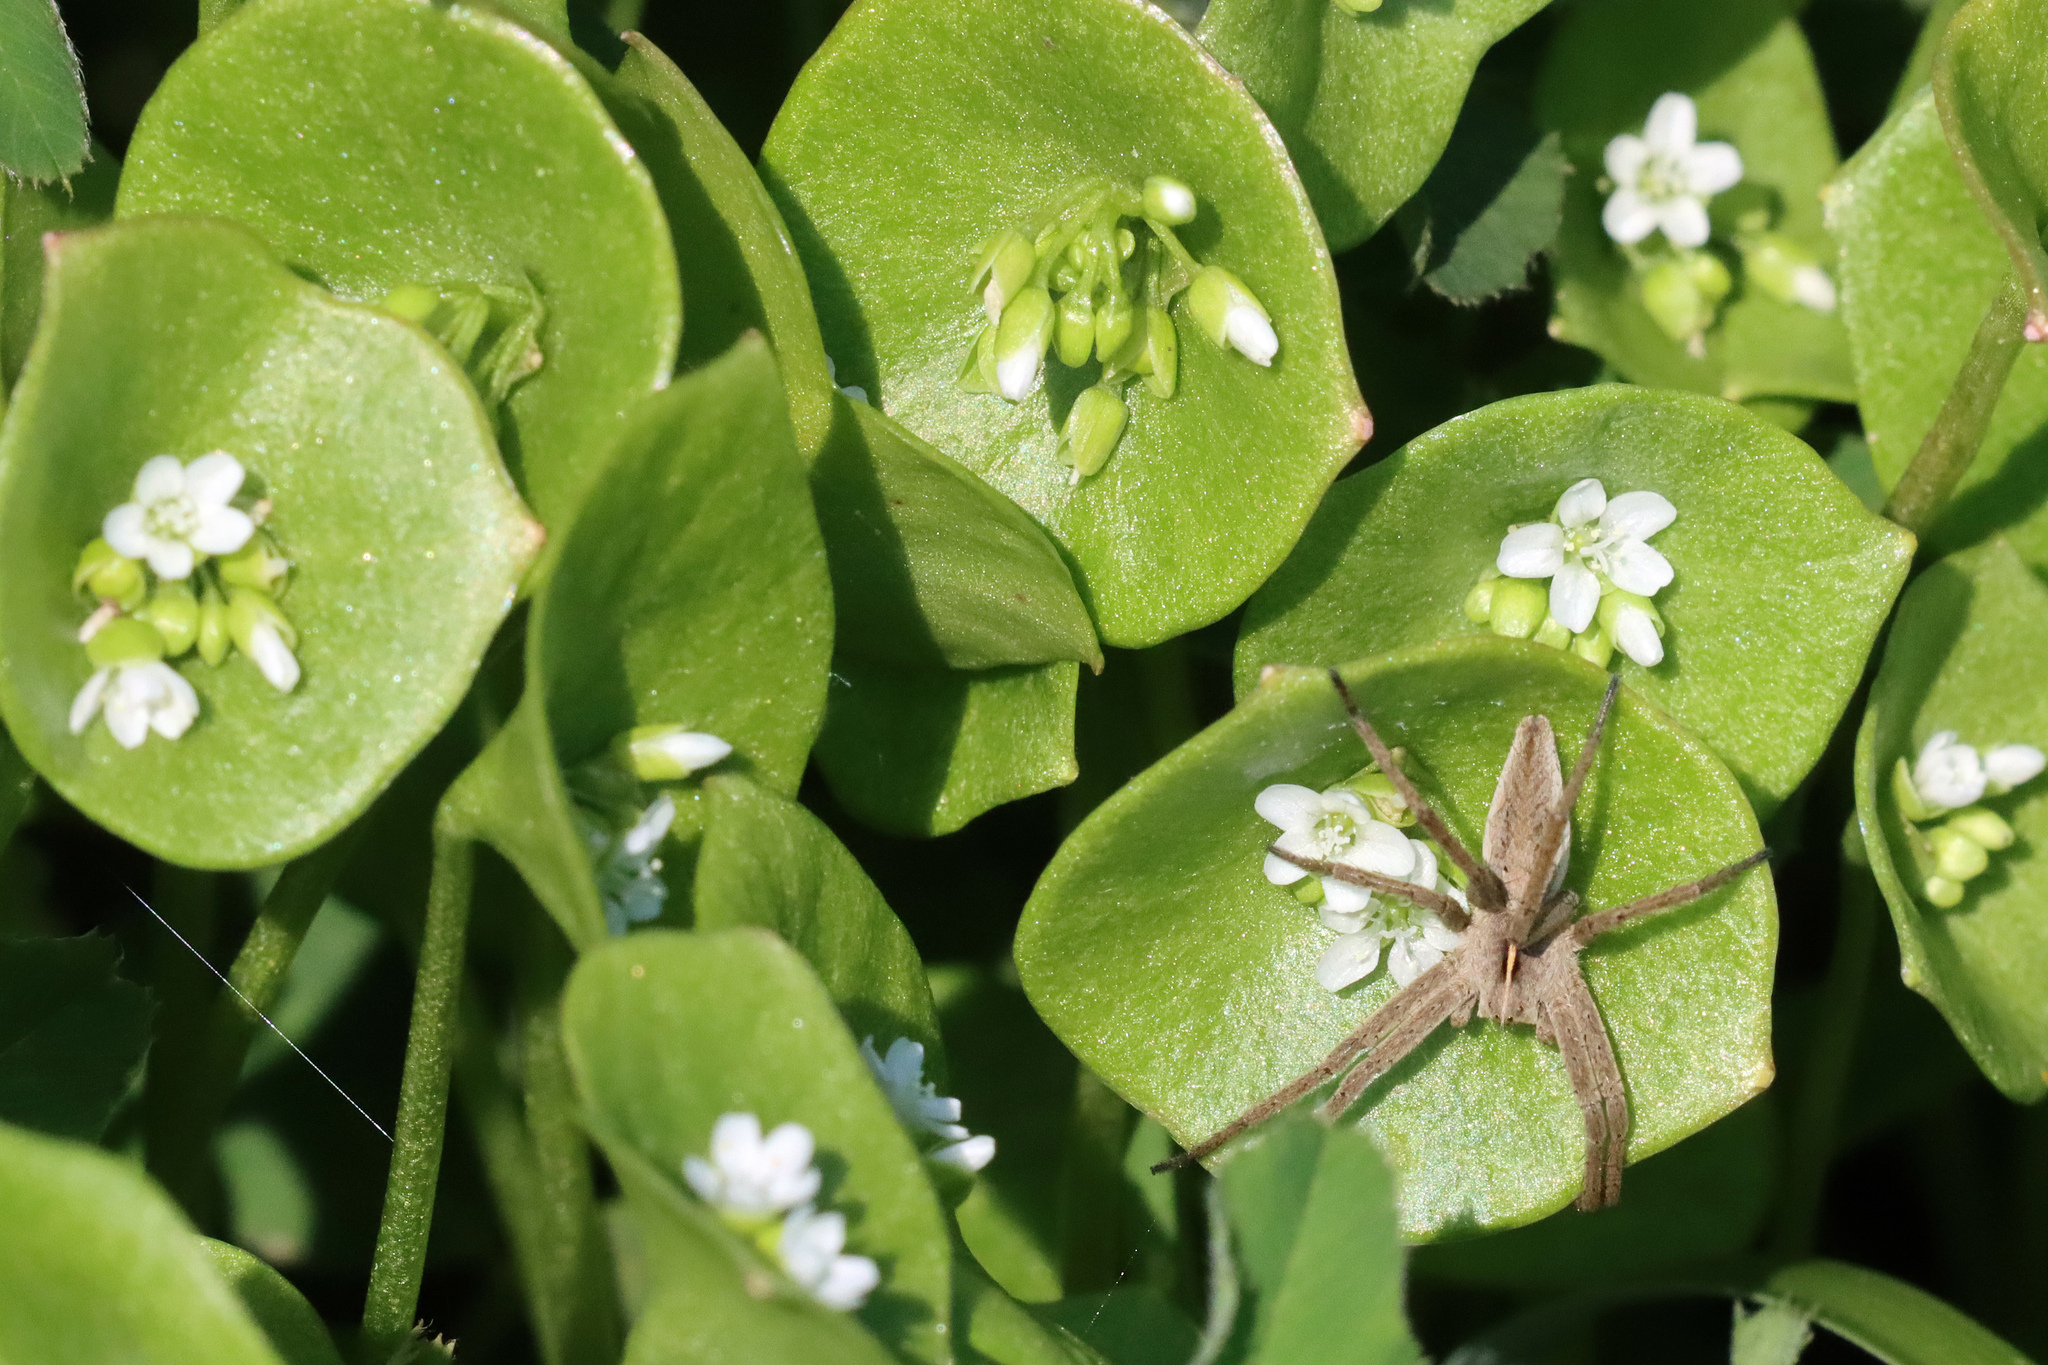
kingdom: Plantae
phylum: Tracheophyta
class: Magnoliopsida
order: Caryophyllales
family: Montiaceae
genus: Claytonia
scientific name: Claytonia perfoliata
